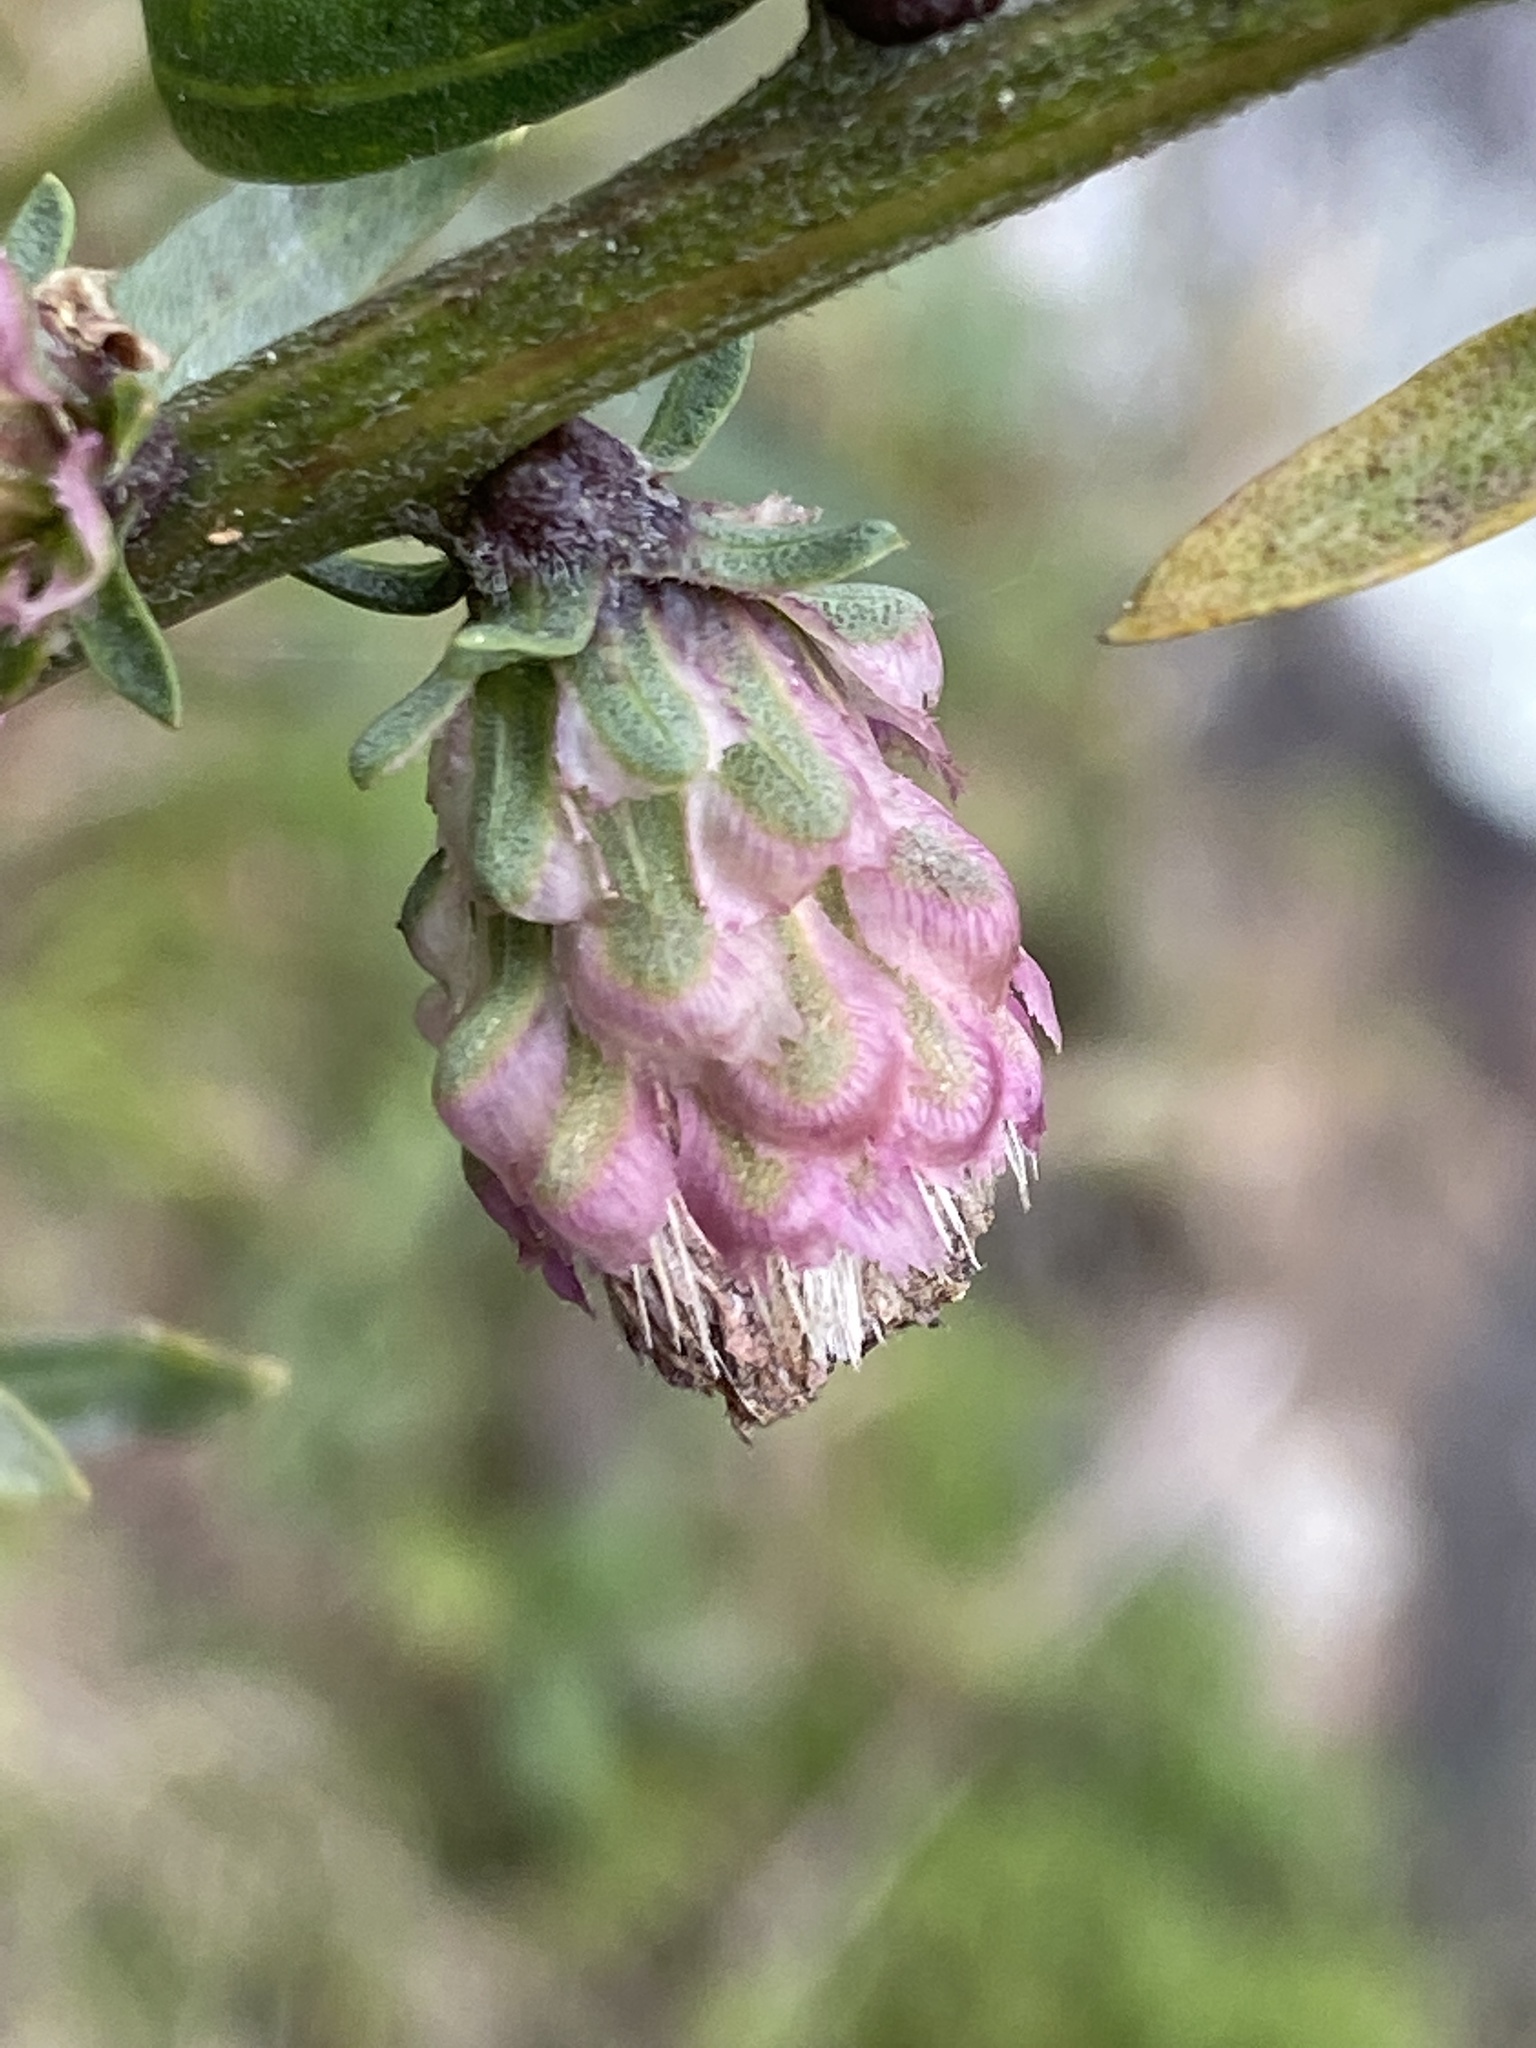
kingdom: Plantae
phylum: Tracheophyta
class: Magnoliopsida
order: Asterales
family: Asteraceae
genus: Liatris
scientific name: Liatris aspera
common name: Lacerate blazing-star
